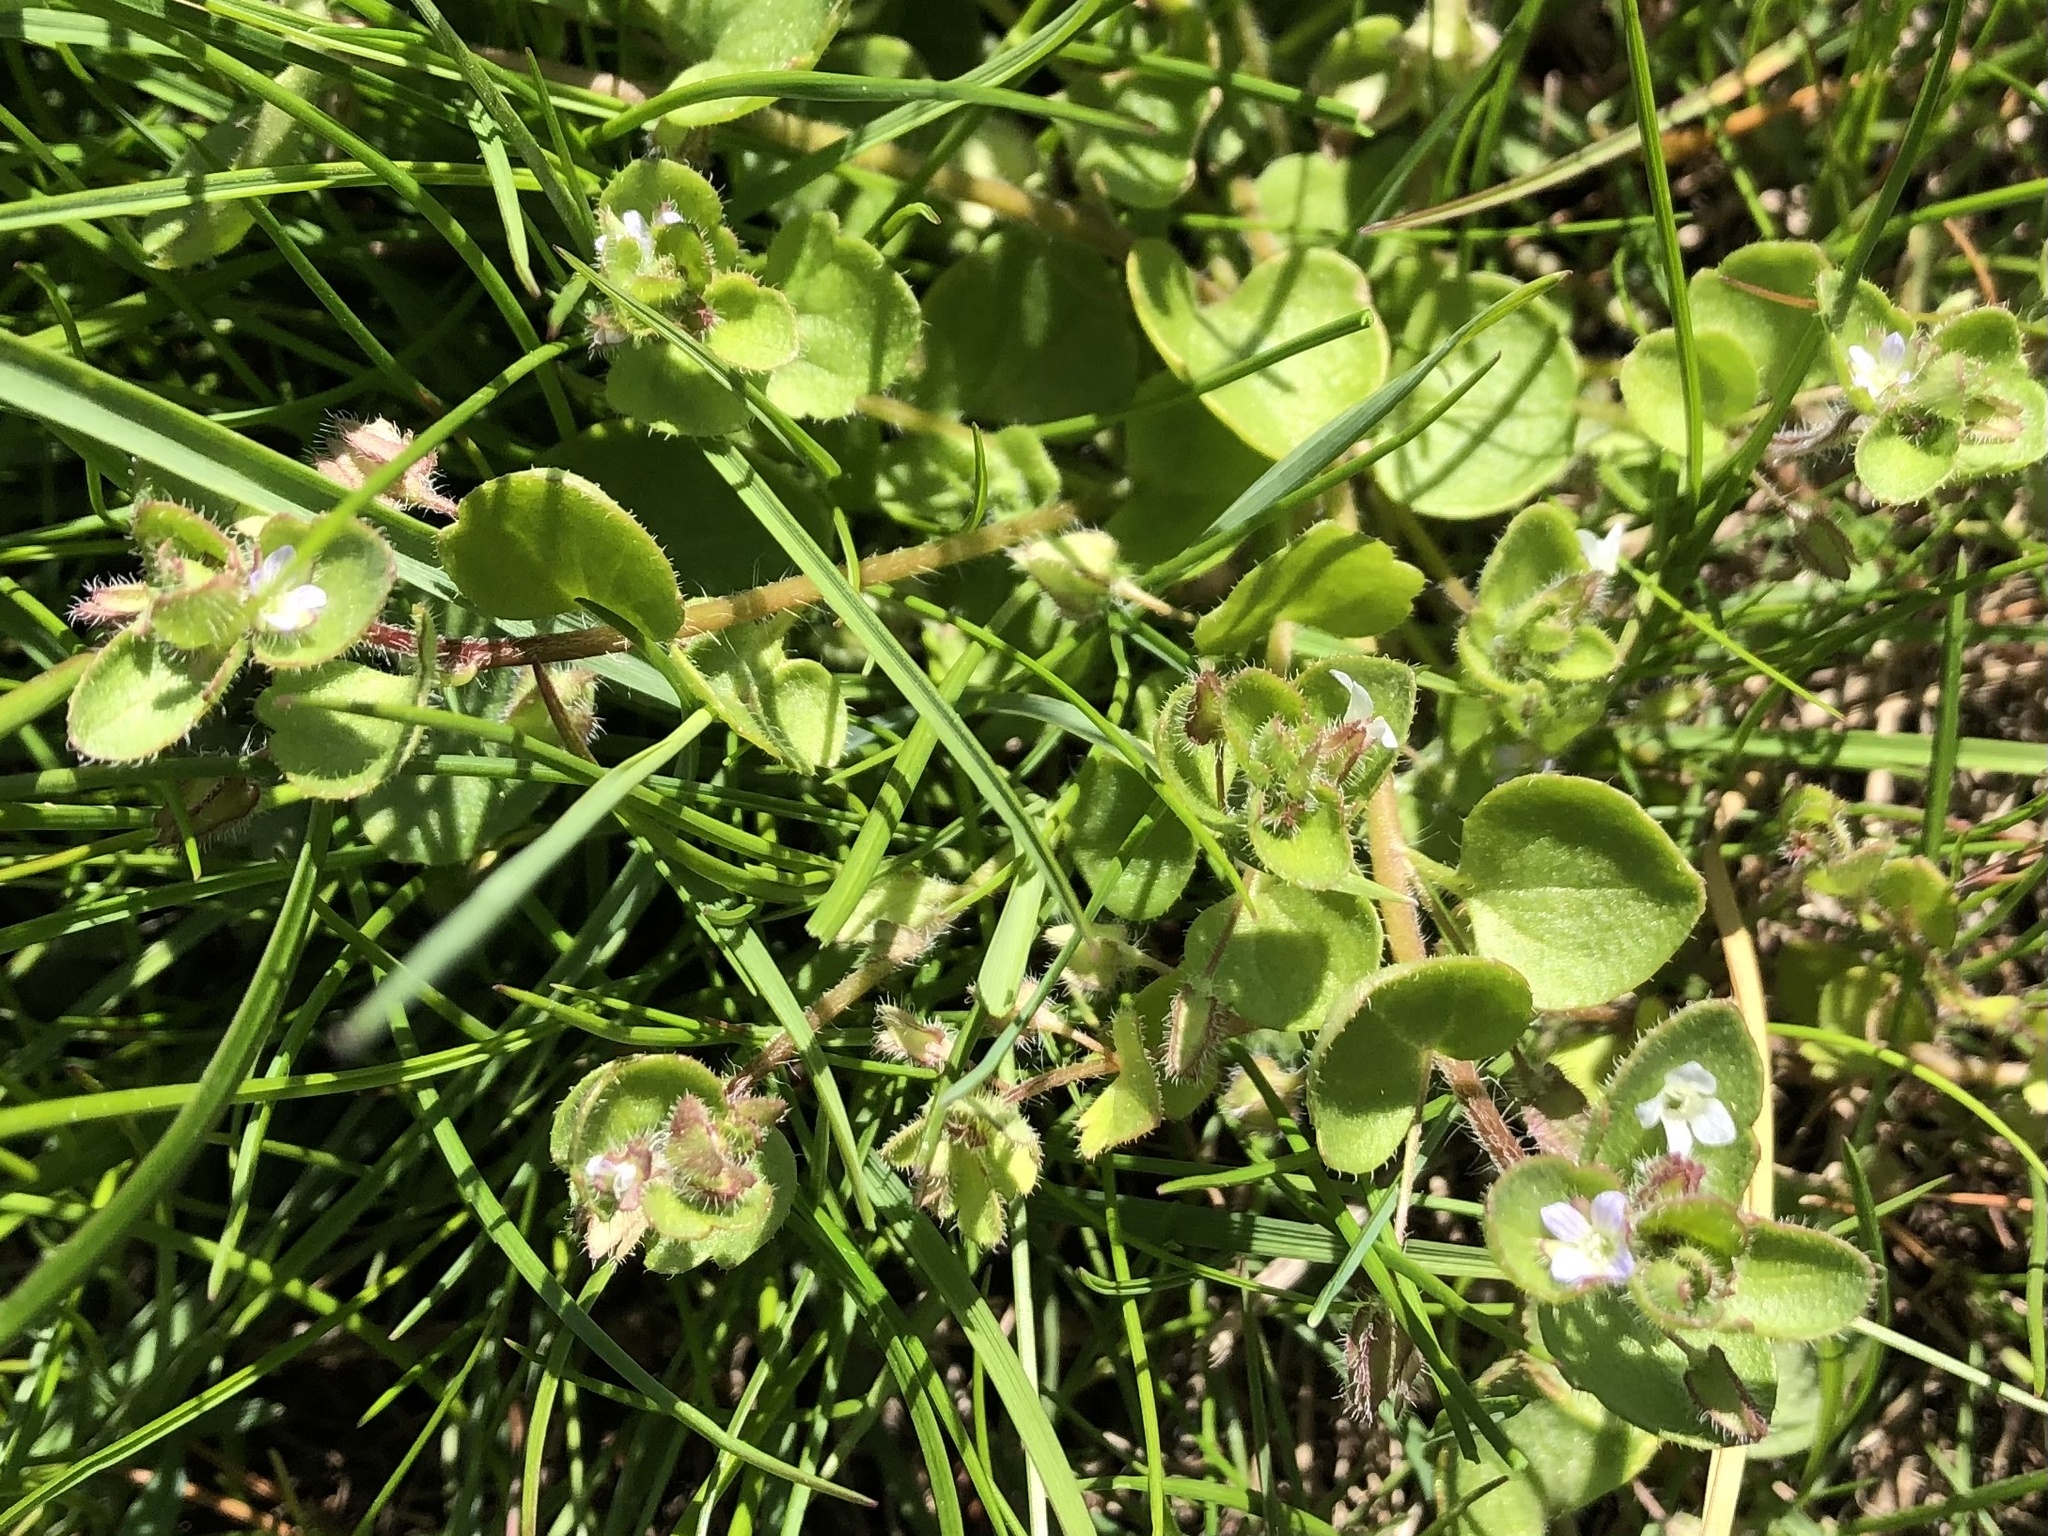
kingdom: Plantae
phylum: Tracheophyta
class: Magnoliopsida
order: Lamiales
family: Plantaginaceae
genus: Veronica
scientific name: Veronica sublobata
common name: False ivy-leaved speedwell
